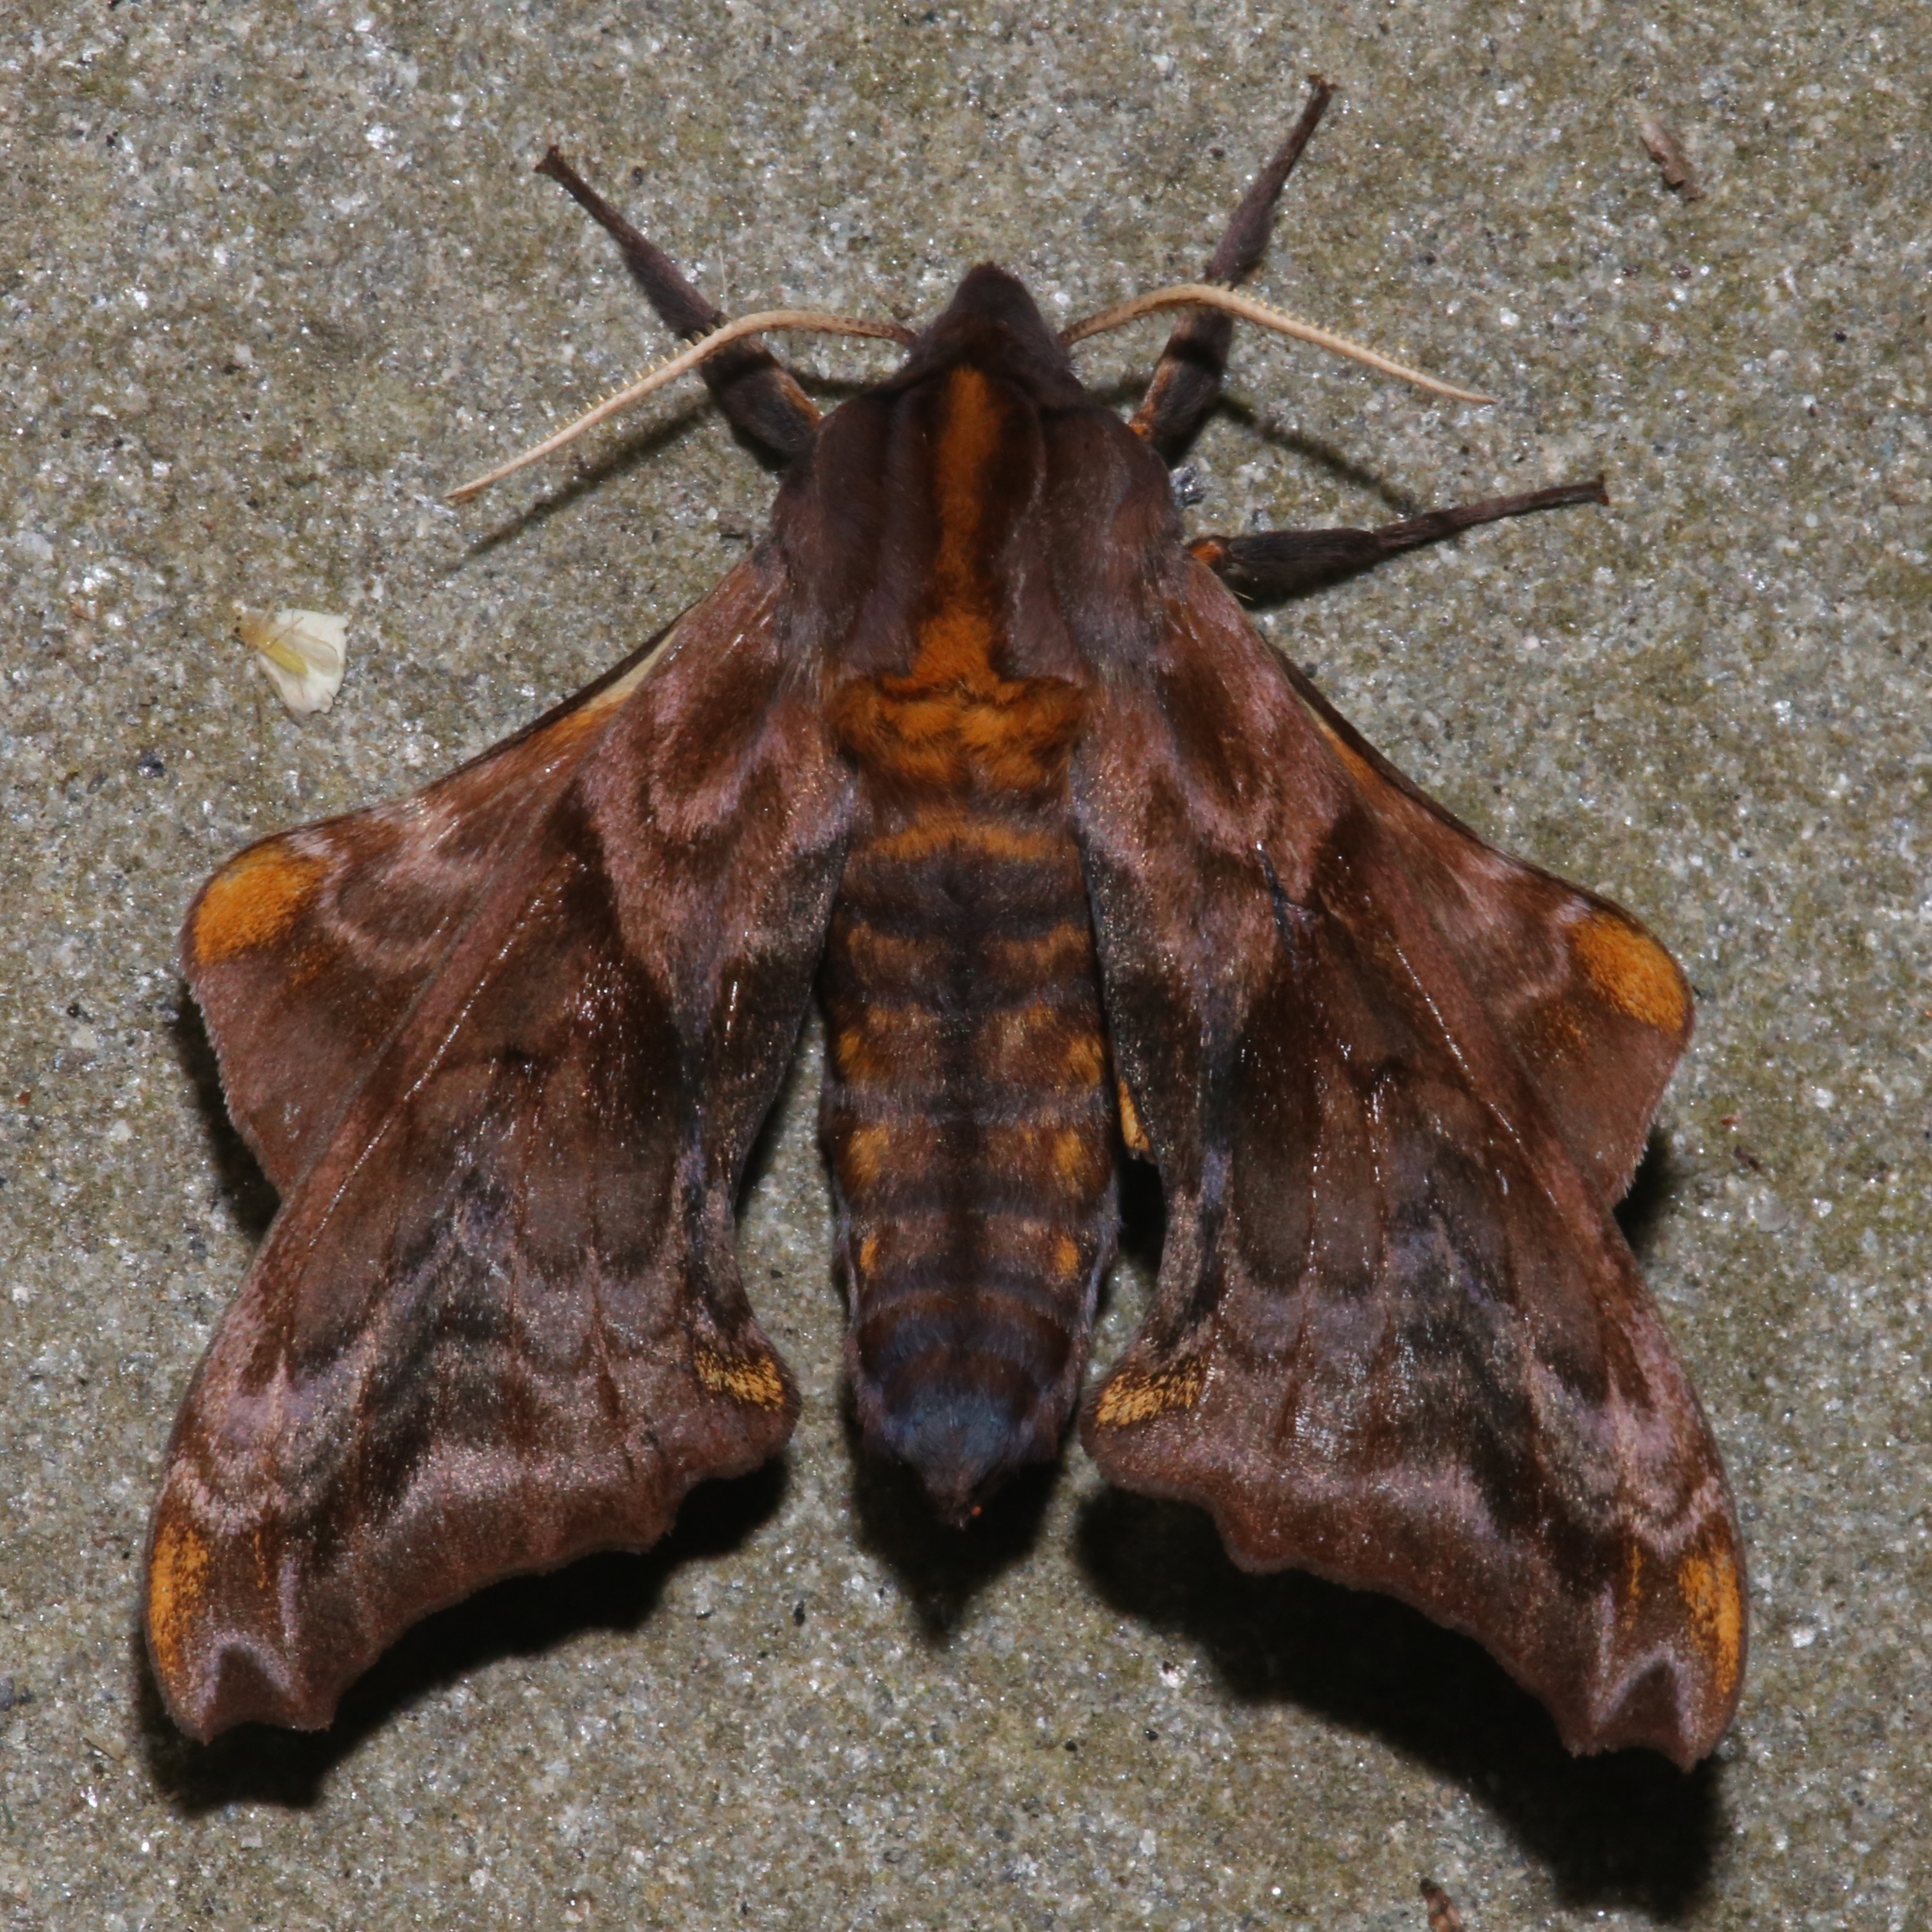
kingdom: Animalia
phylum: Arthropoda
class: Insecta
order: Lepidoptera
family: Sphingidae
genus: Paonias
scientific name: Paonias myops
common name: Small-eyed sphinx
